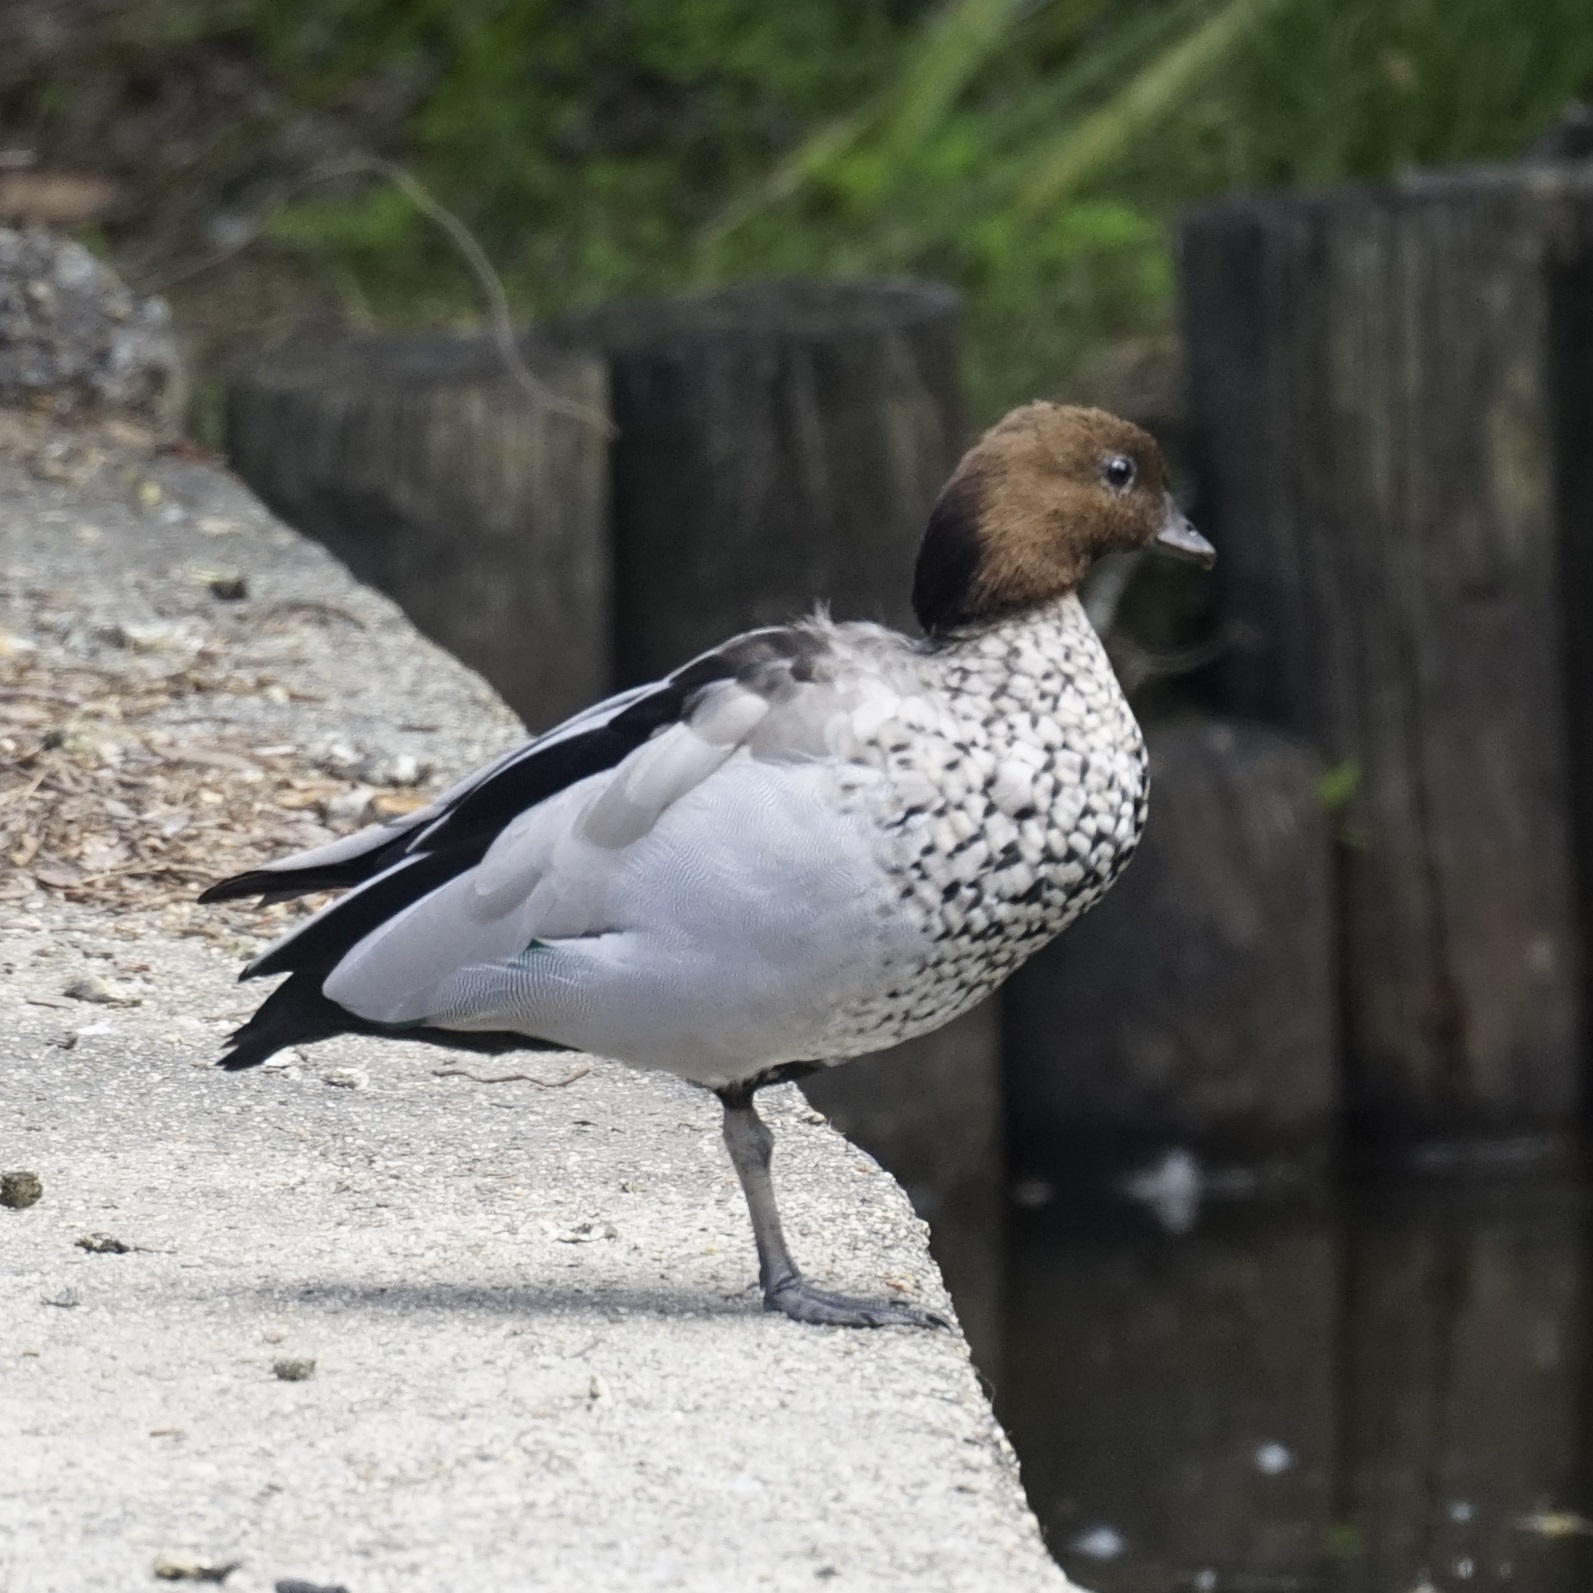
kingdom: Animalia
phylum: Chordata
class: Aves
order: Anseriformes
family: Anatidae
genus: Chenonetta
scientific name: Chenonetta jubata
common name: Maned duck
